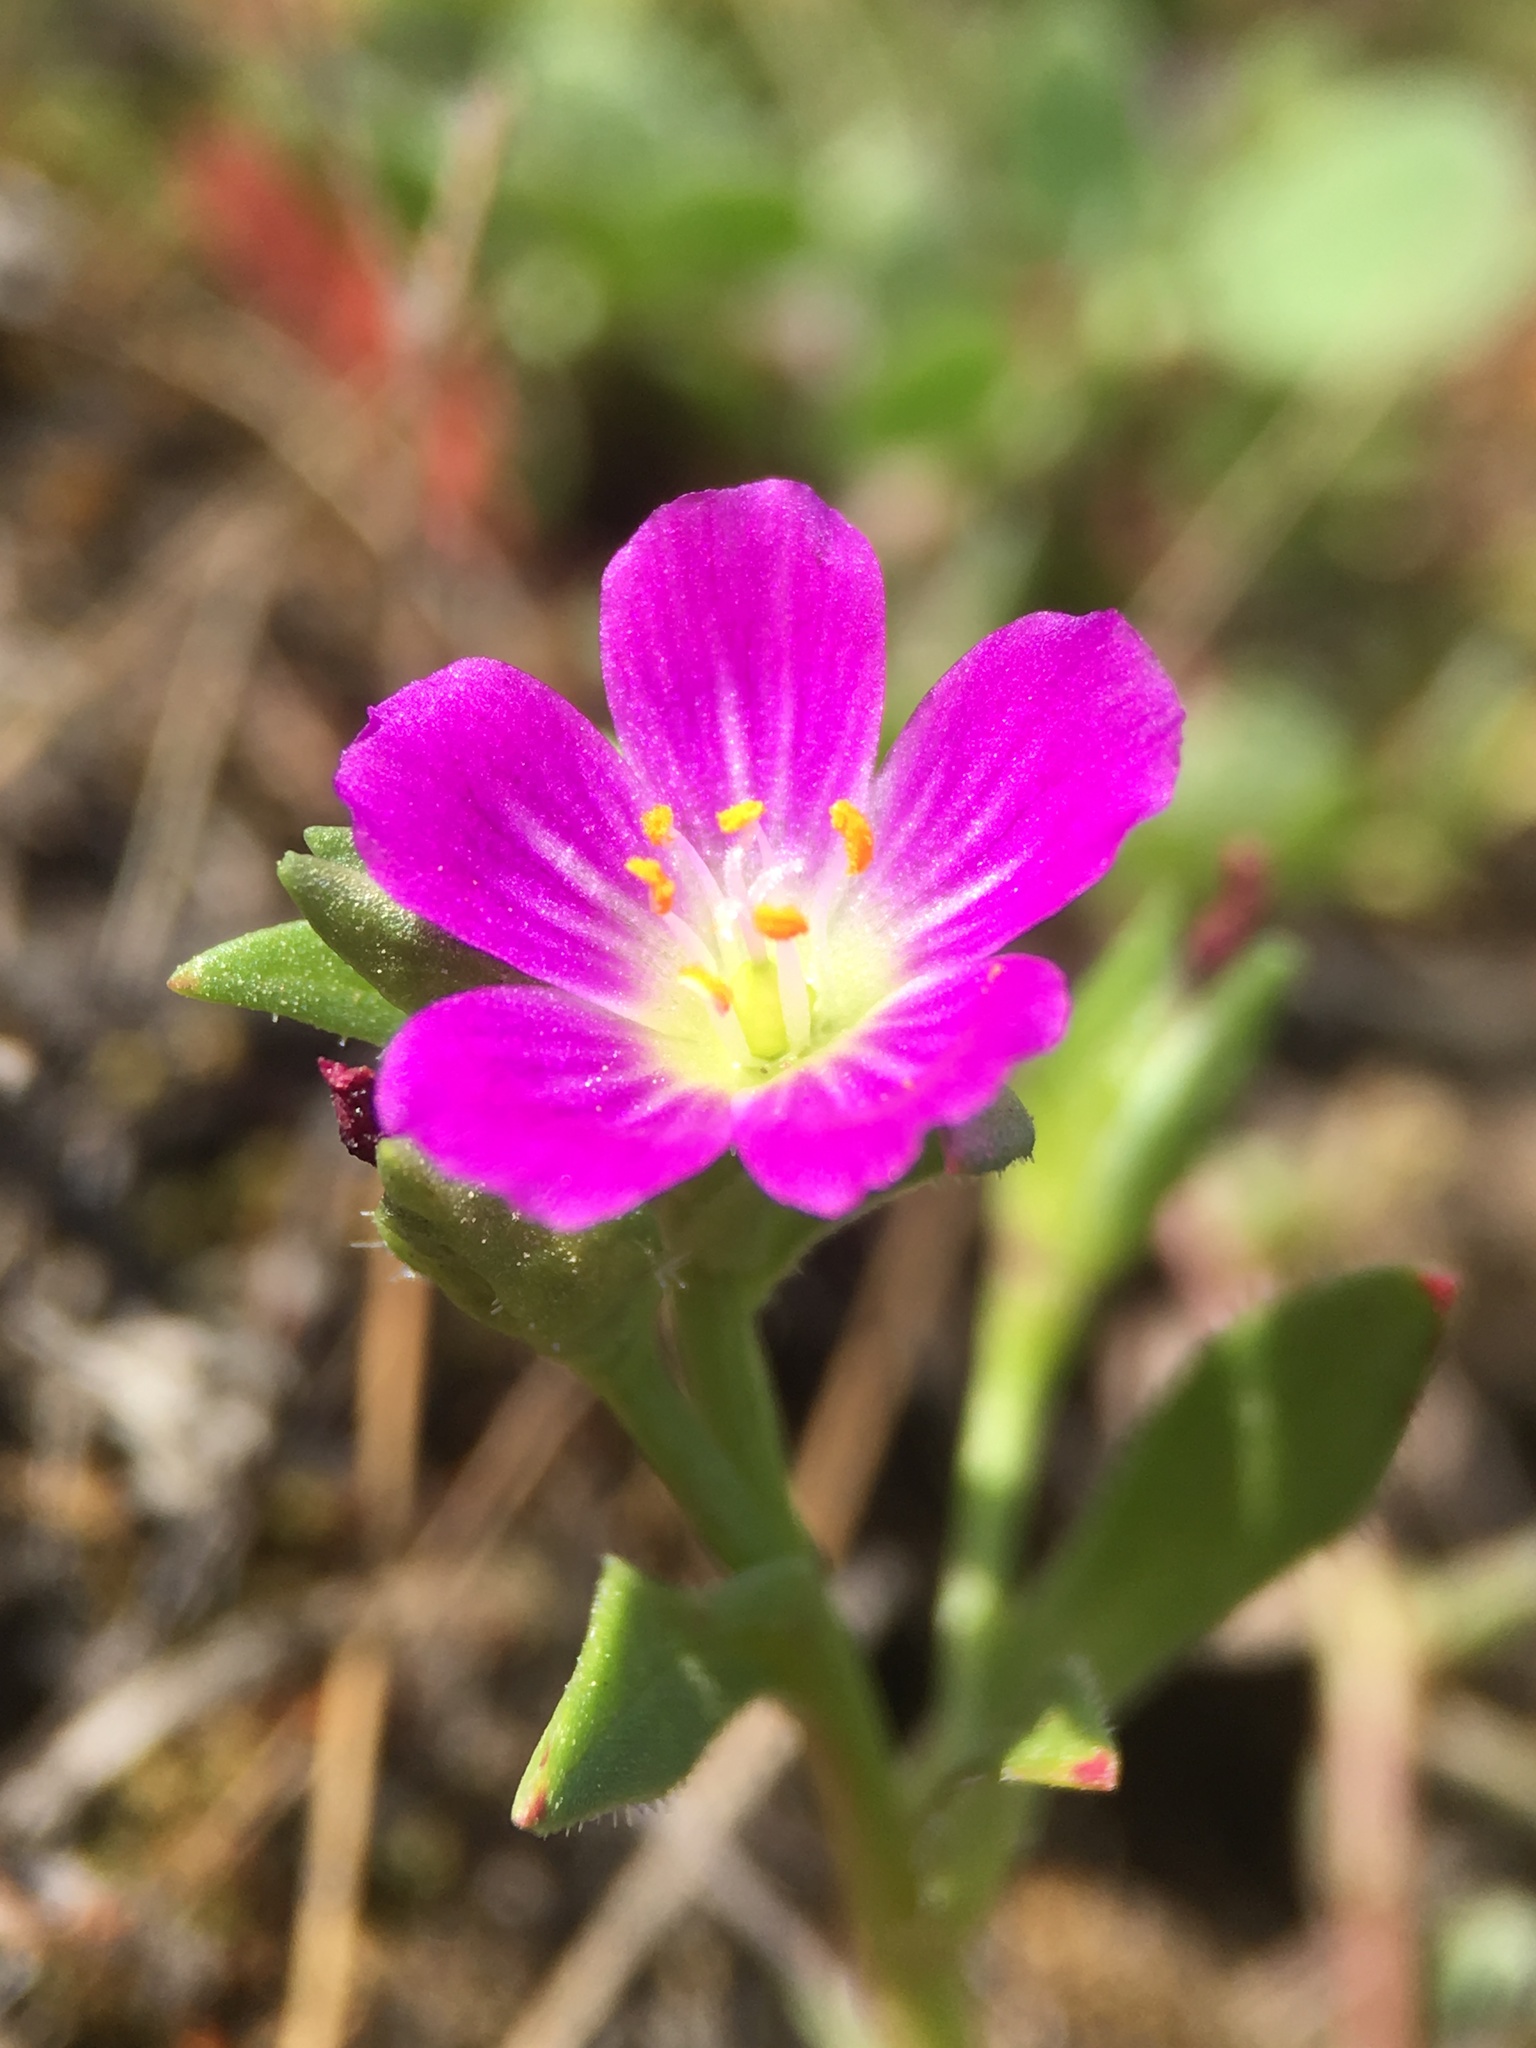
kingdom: Plantae
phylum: Tracheophyta
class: Magnoliopsida
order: Caryophyllales
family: Montiaceae
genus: Calandrinia
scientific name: Calandrinia menziesii
